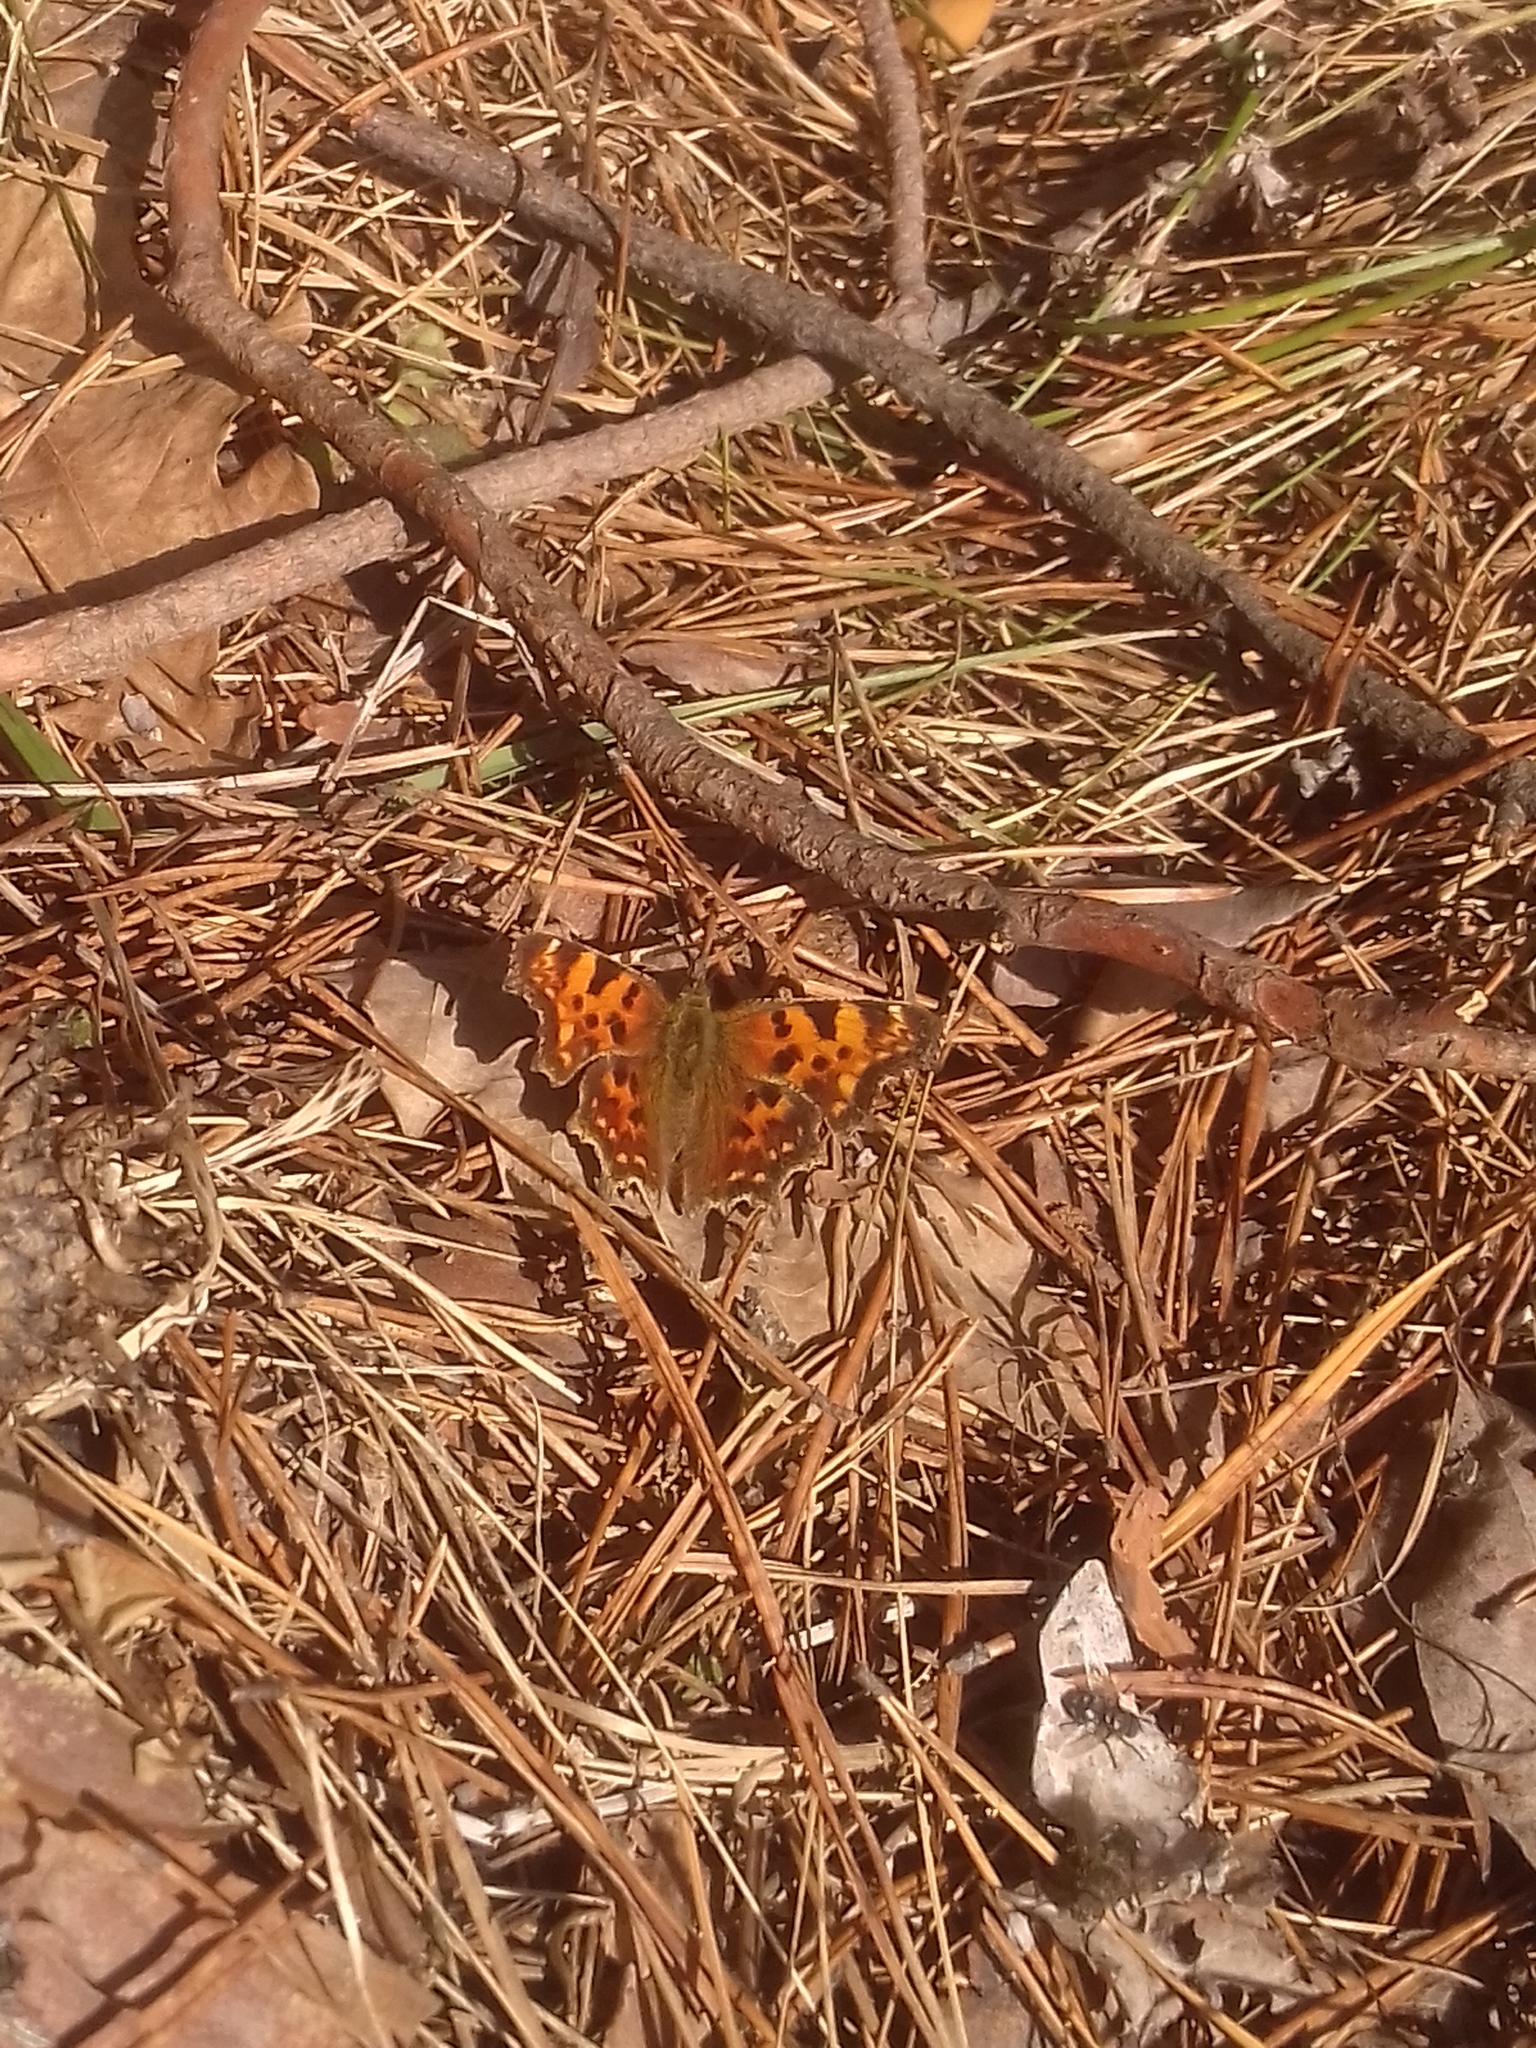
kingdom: Animalia
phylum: Arthropoda
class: Insecta
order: Lepidoptera
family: Nymphalidae
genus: Polygonia
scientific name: Polygonia c-album
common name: Comma
